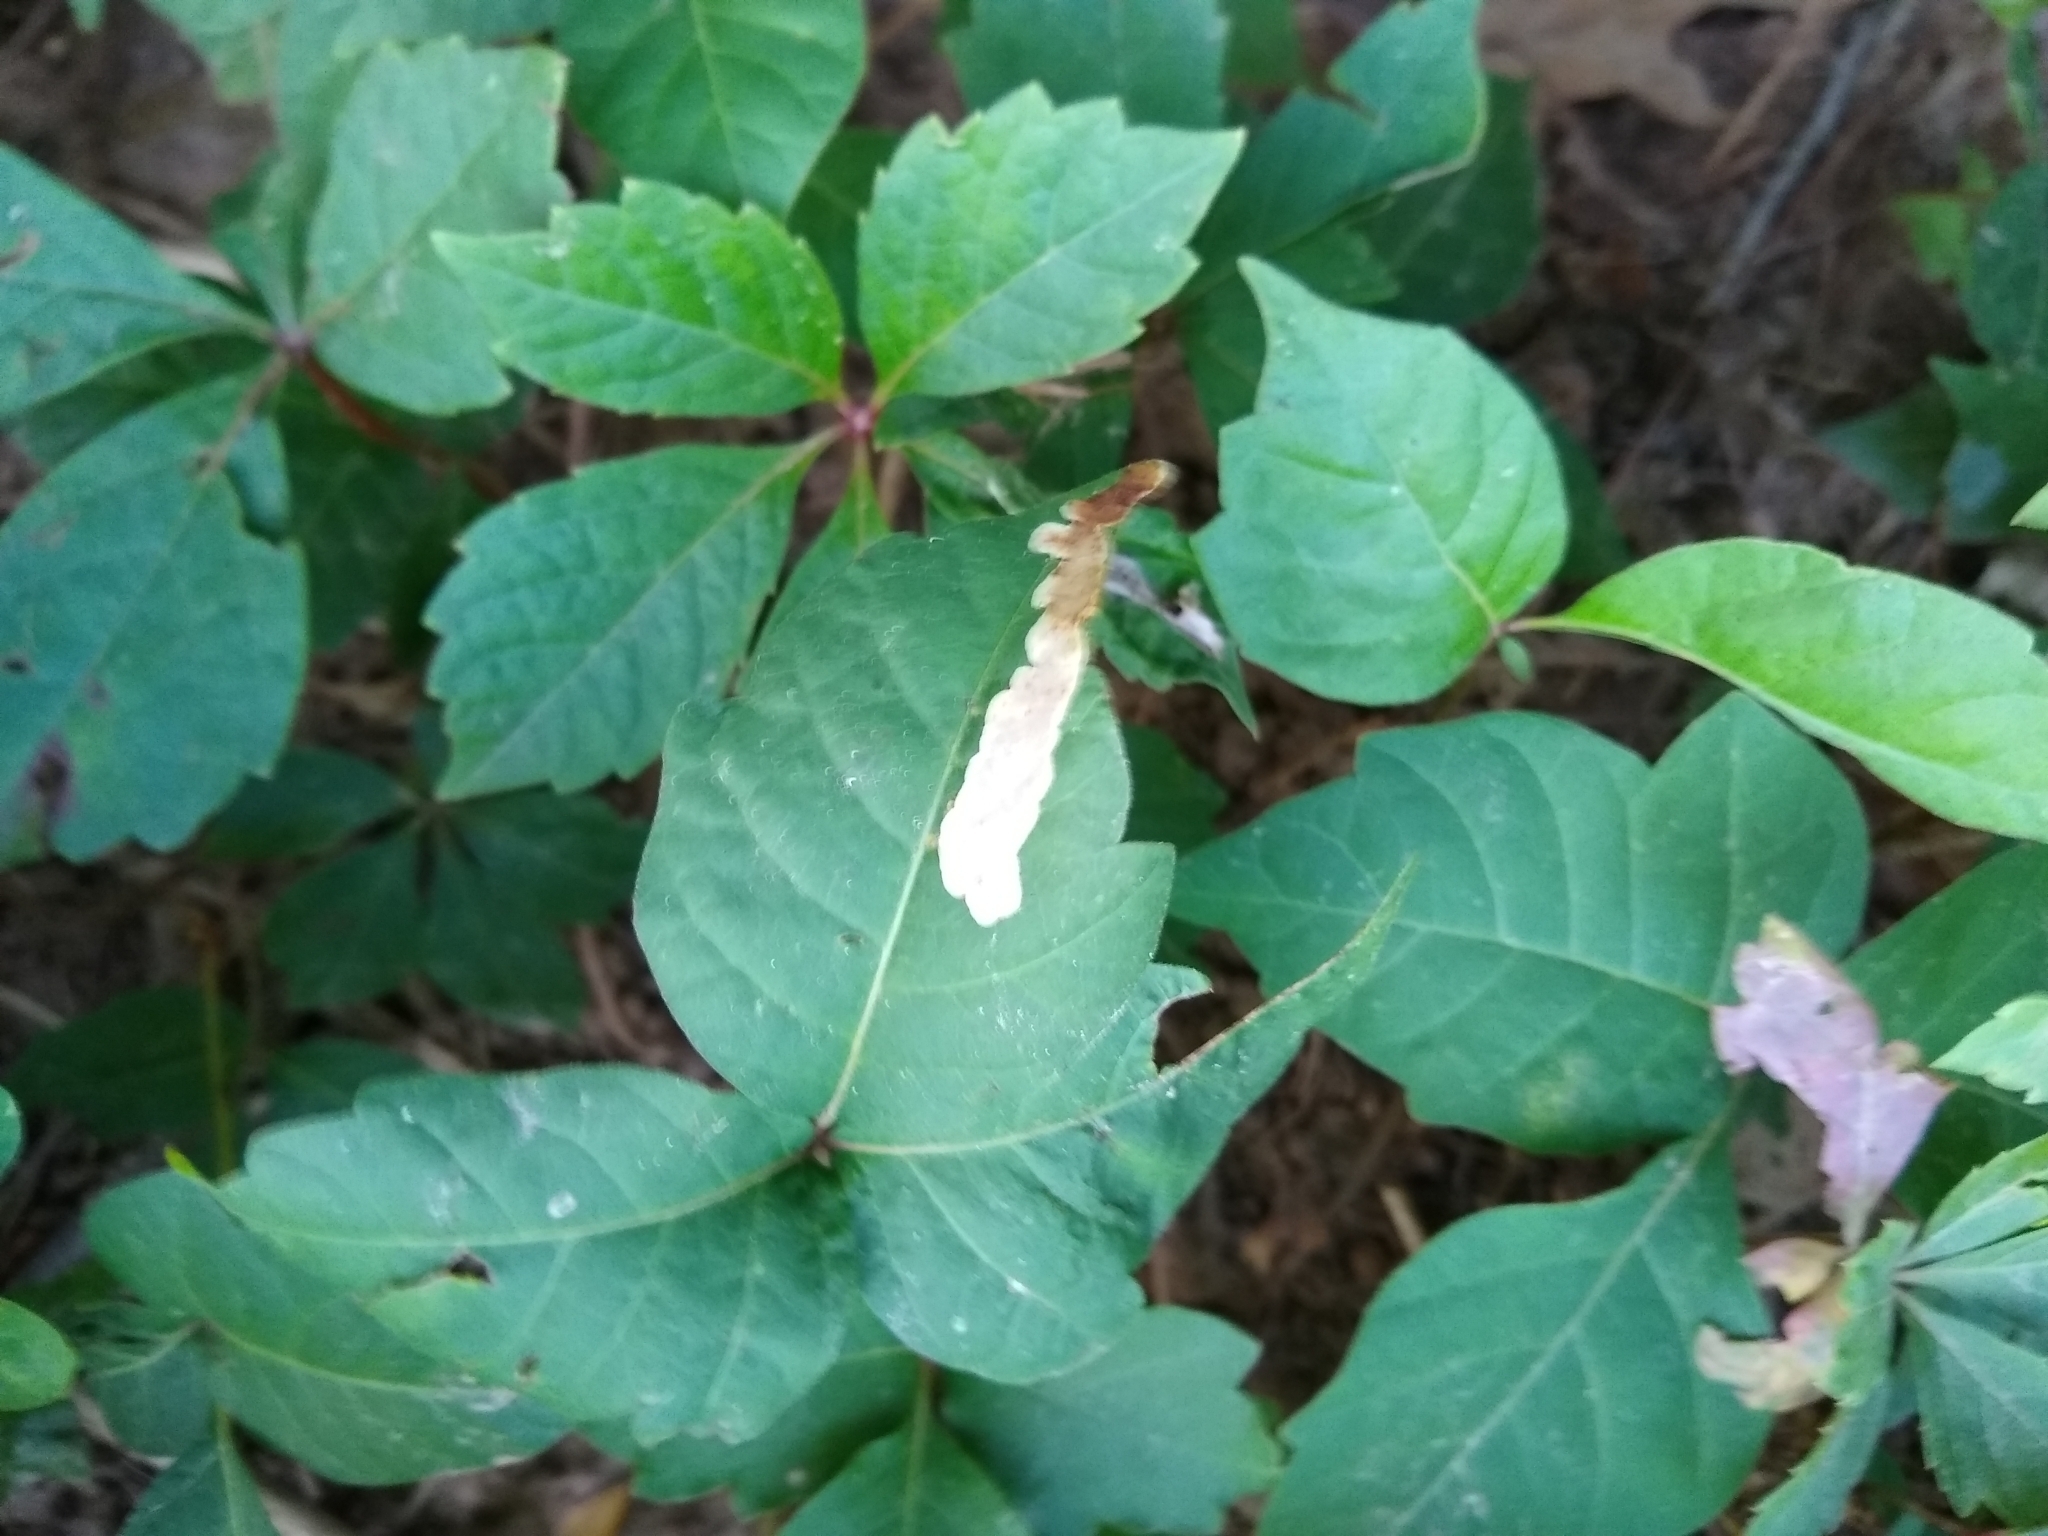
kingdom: Animalia
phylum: Arthropoda
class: Insecta
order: Lepidoptera
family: Gracillariidae
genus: Cameraria
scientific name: Cameraria guttifinitella
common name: Poison ivy leaf-miner moth
